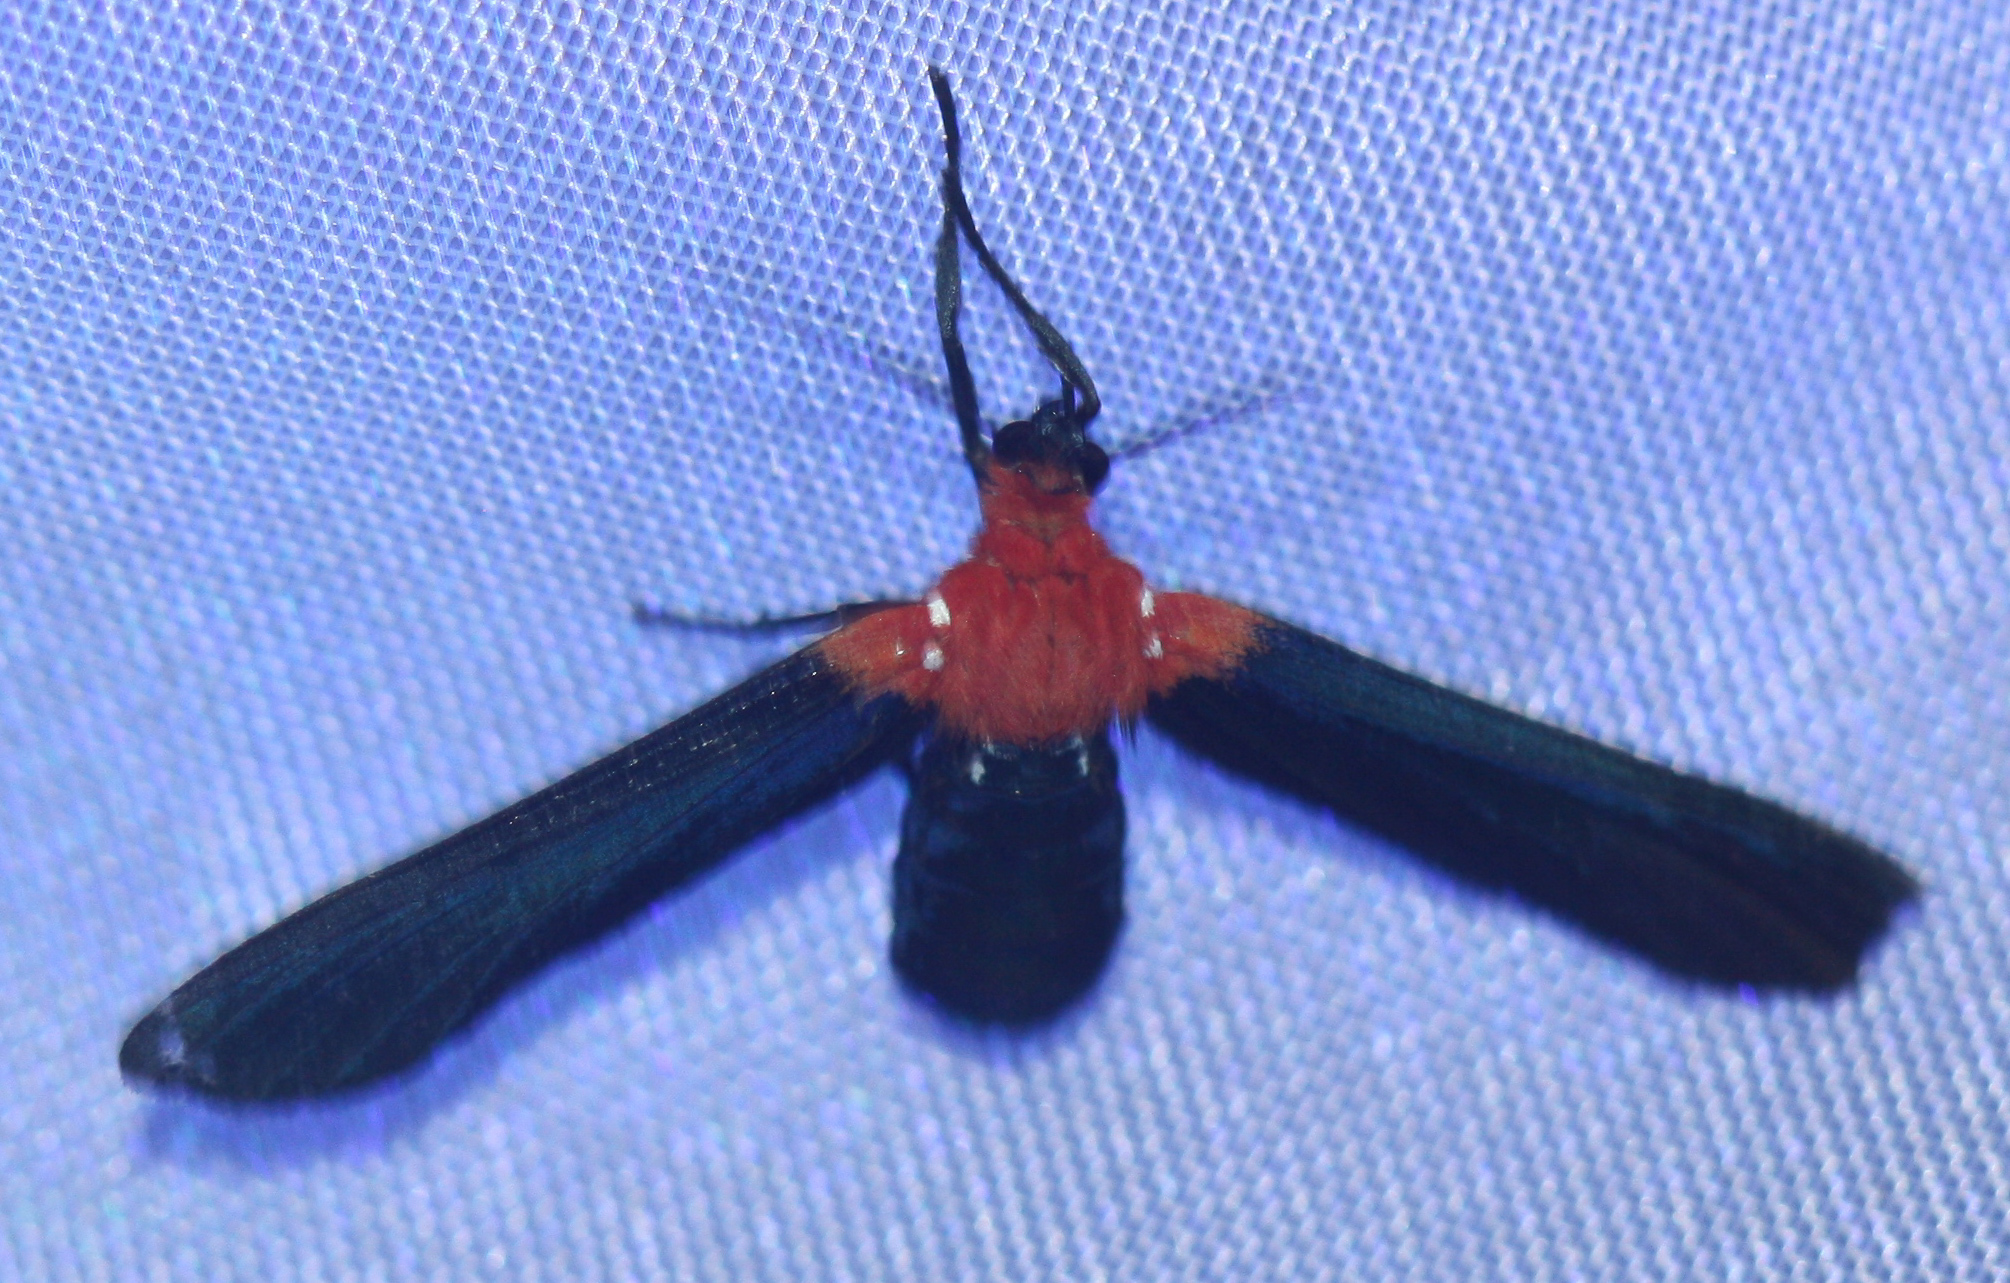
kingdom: Animalia
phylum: Arthropoda
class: Insecta
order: Lepidoptera
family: Erebidae
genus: Psoloptera
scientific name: Psoloptera basifulva
